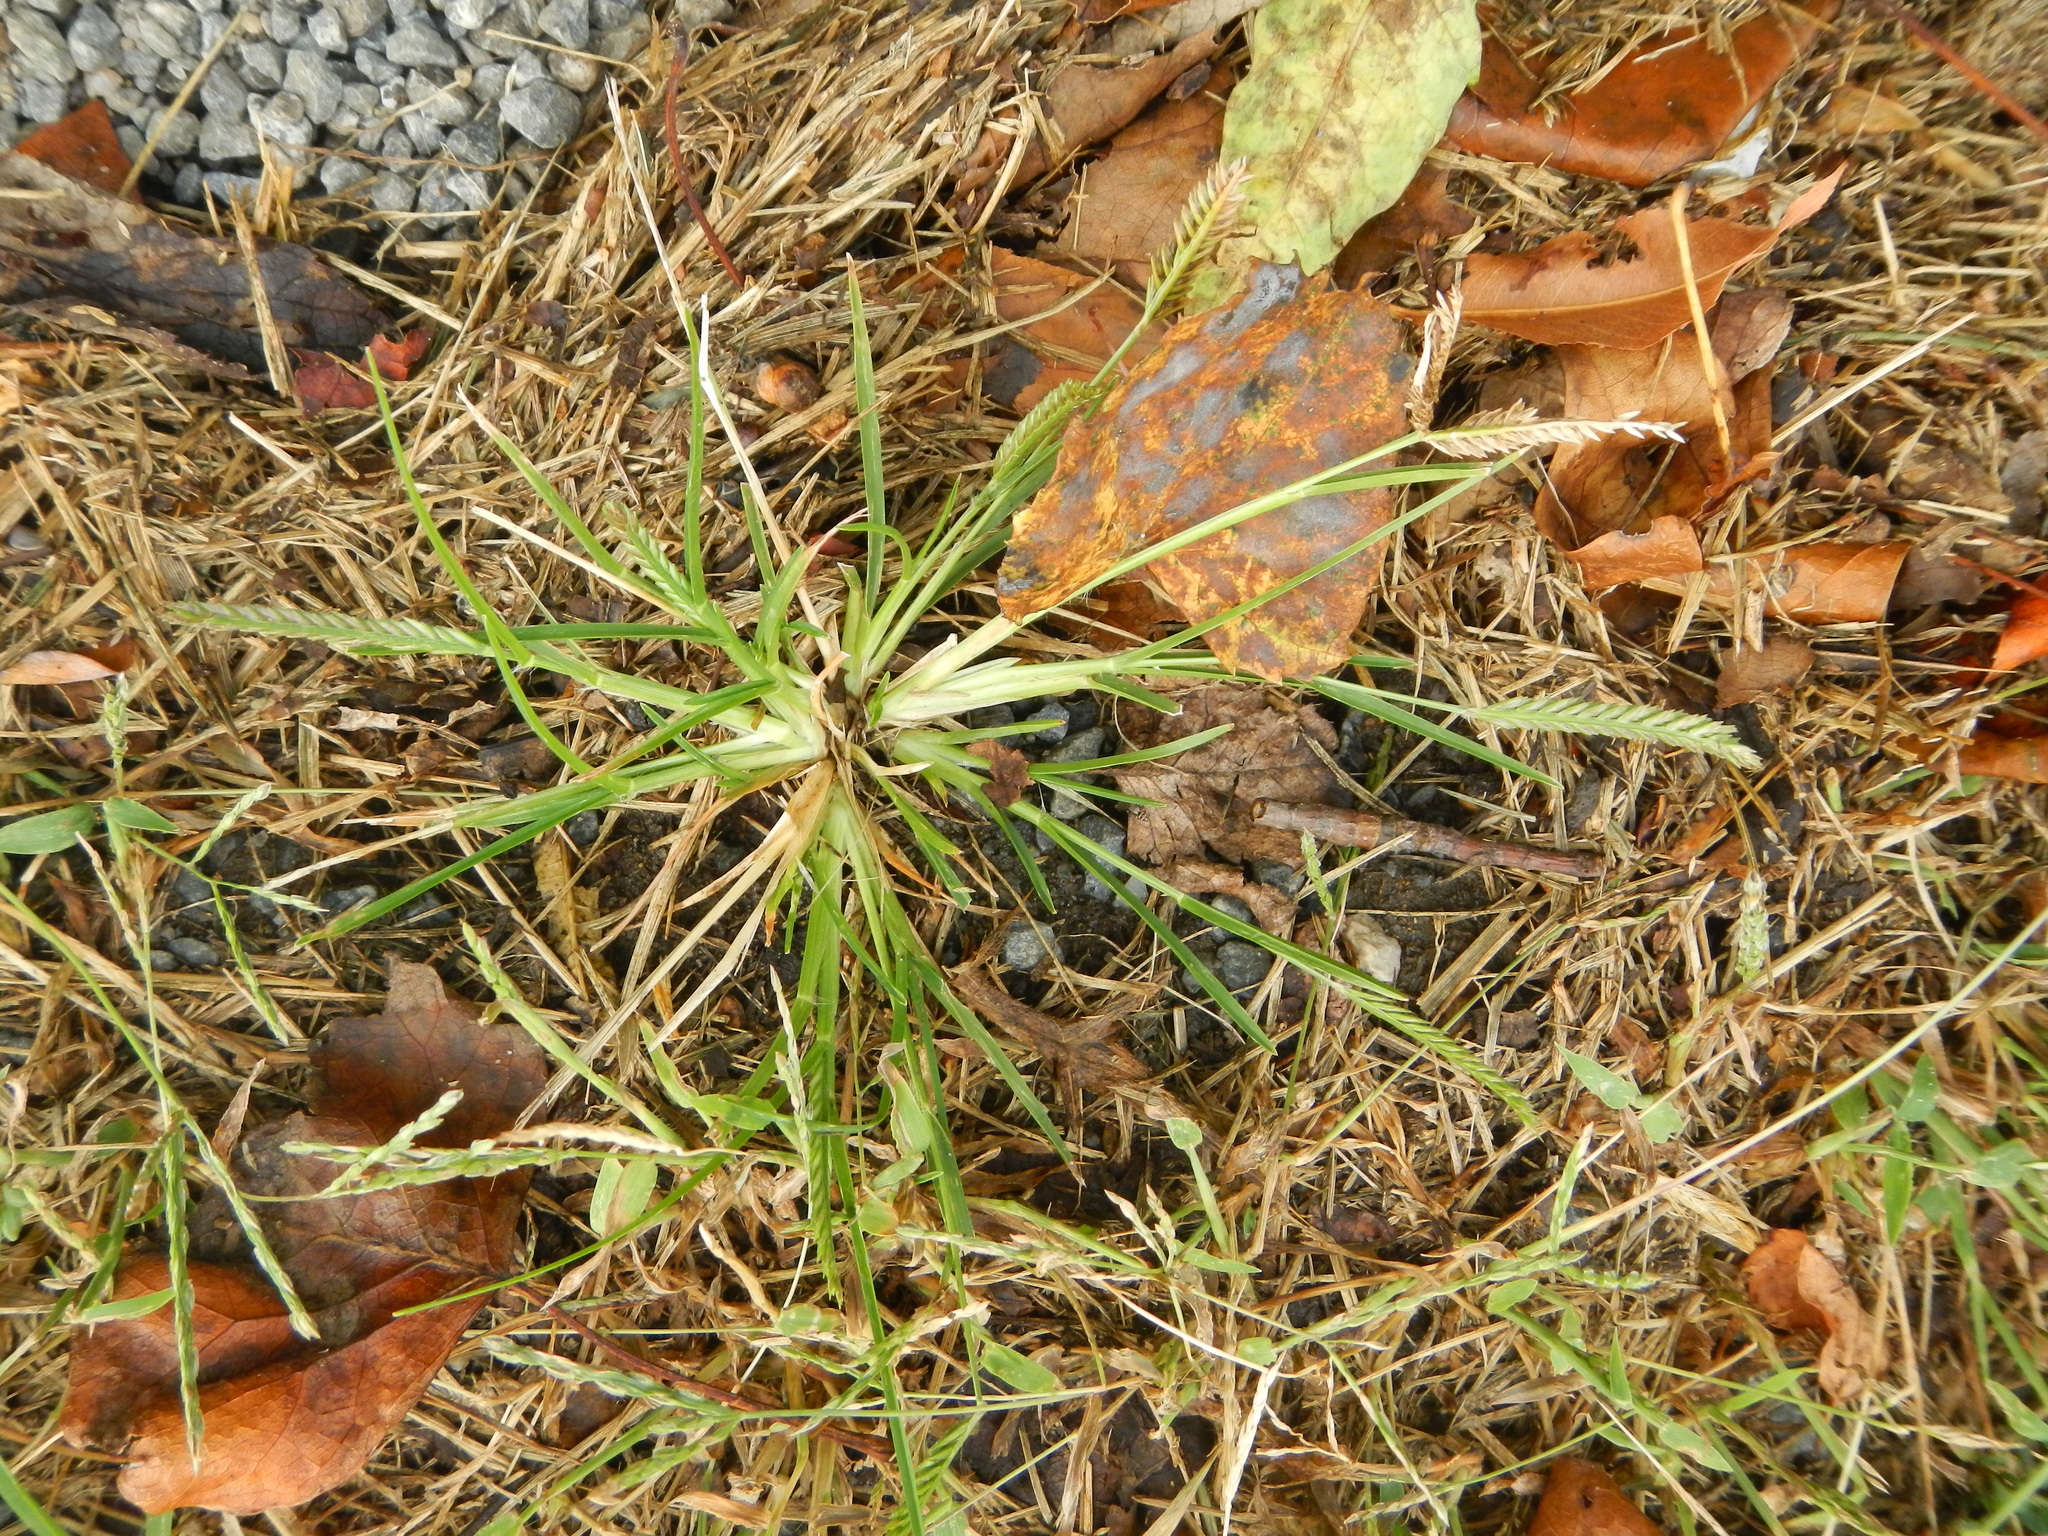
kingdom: Plantae
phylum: Tracheophyta
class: Liliopsida
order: Poales
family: Poaceae
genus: Eleusine
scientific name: Eleusine indica
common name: Yard-grass
